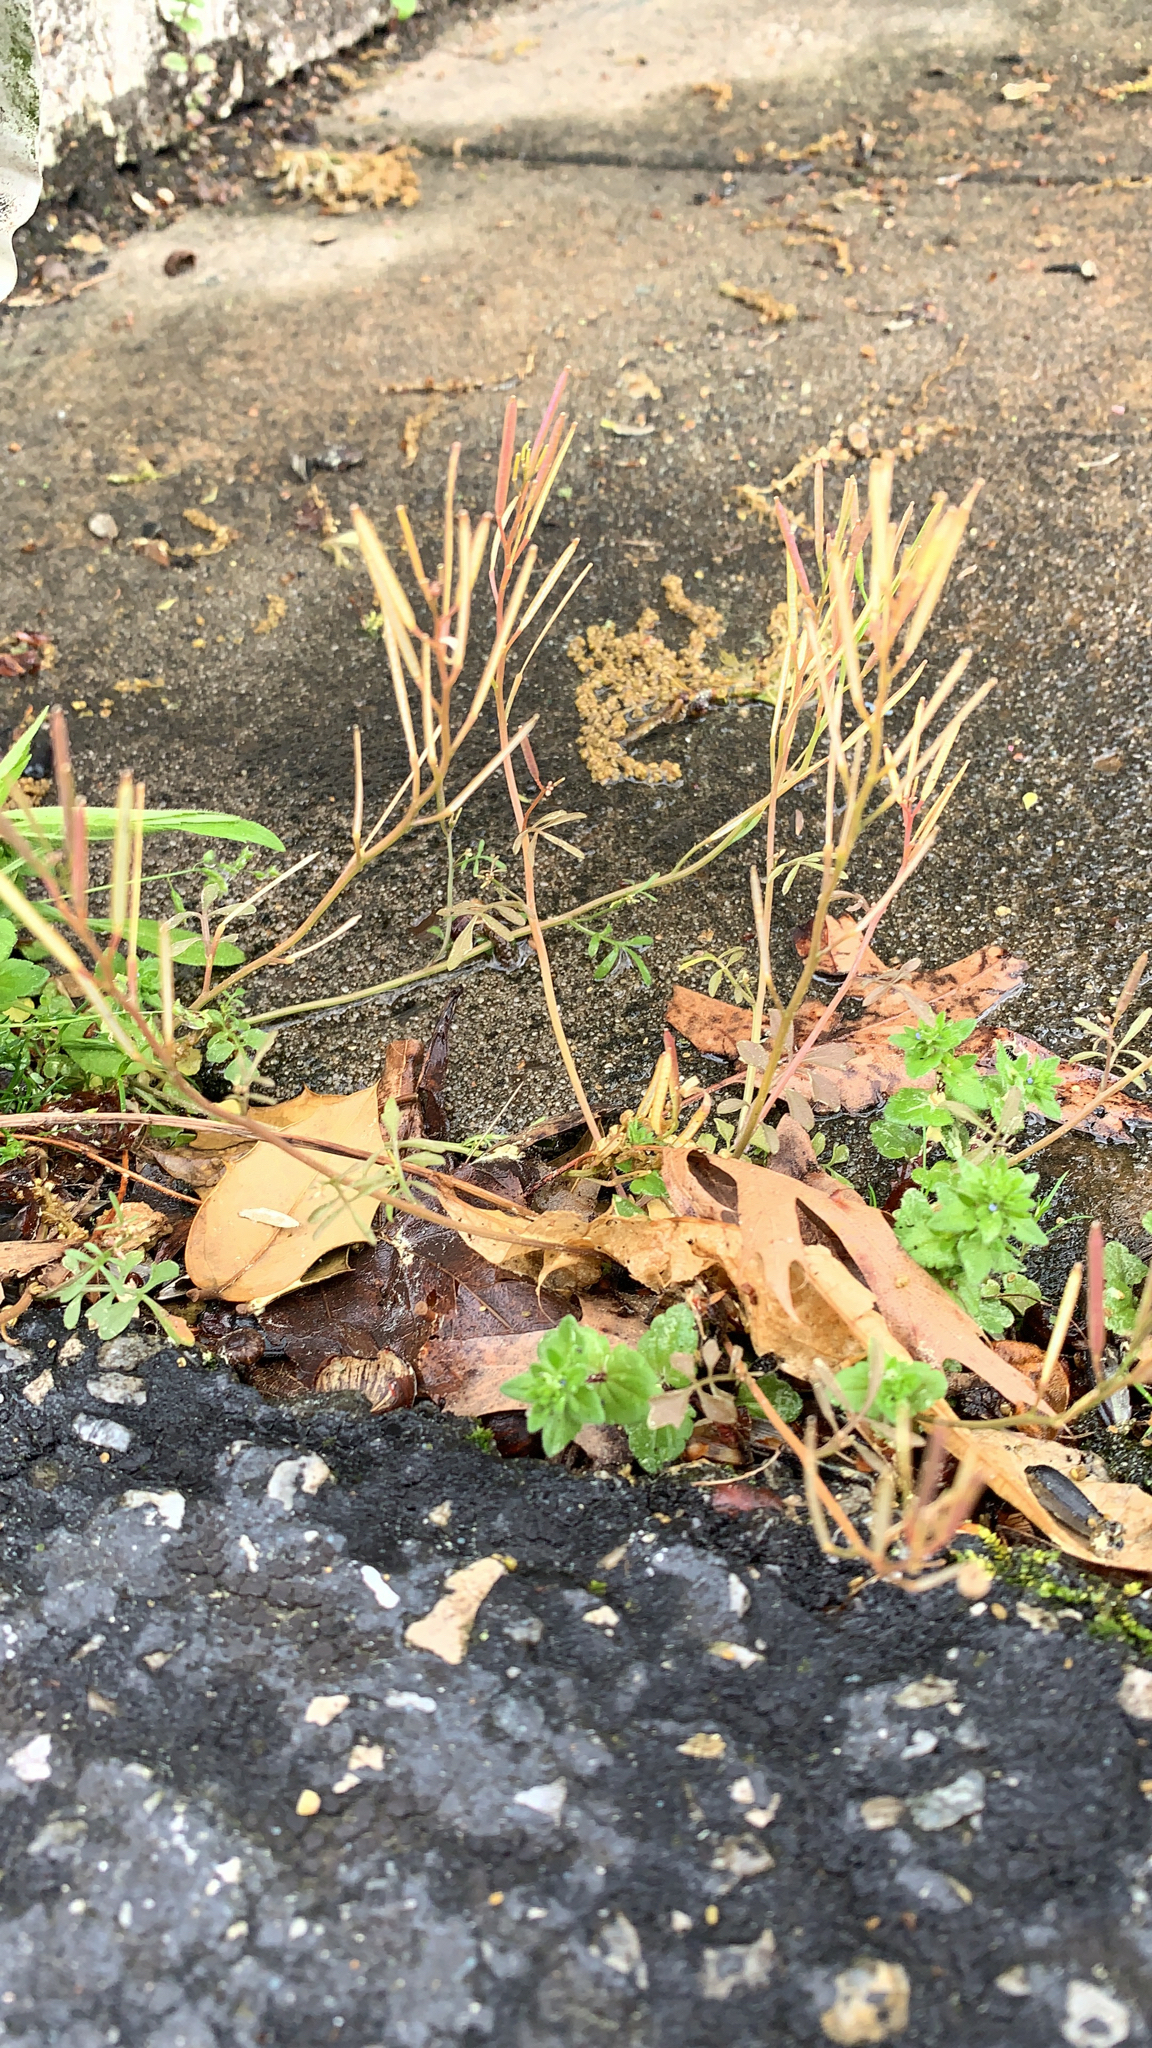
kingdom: Plantae
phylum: Tracheophyta
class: Magnoliopsida
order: Brassicales
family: Brassicaceae
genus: Cardamine
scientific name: Cardamine hirsuta
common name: Hairy bittercress
